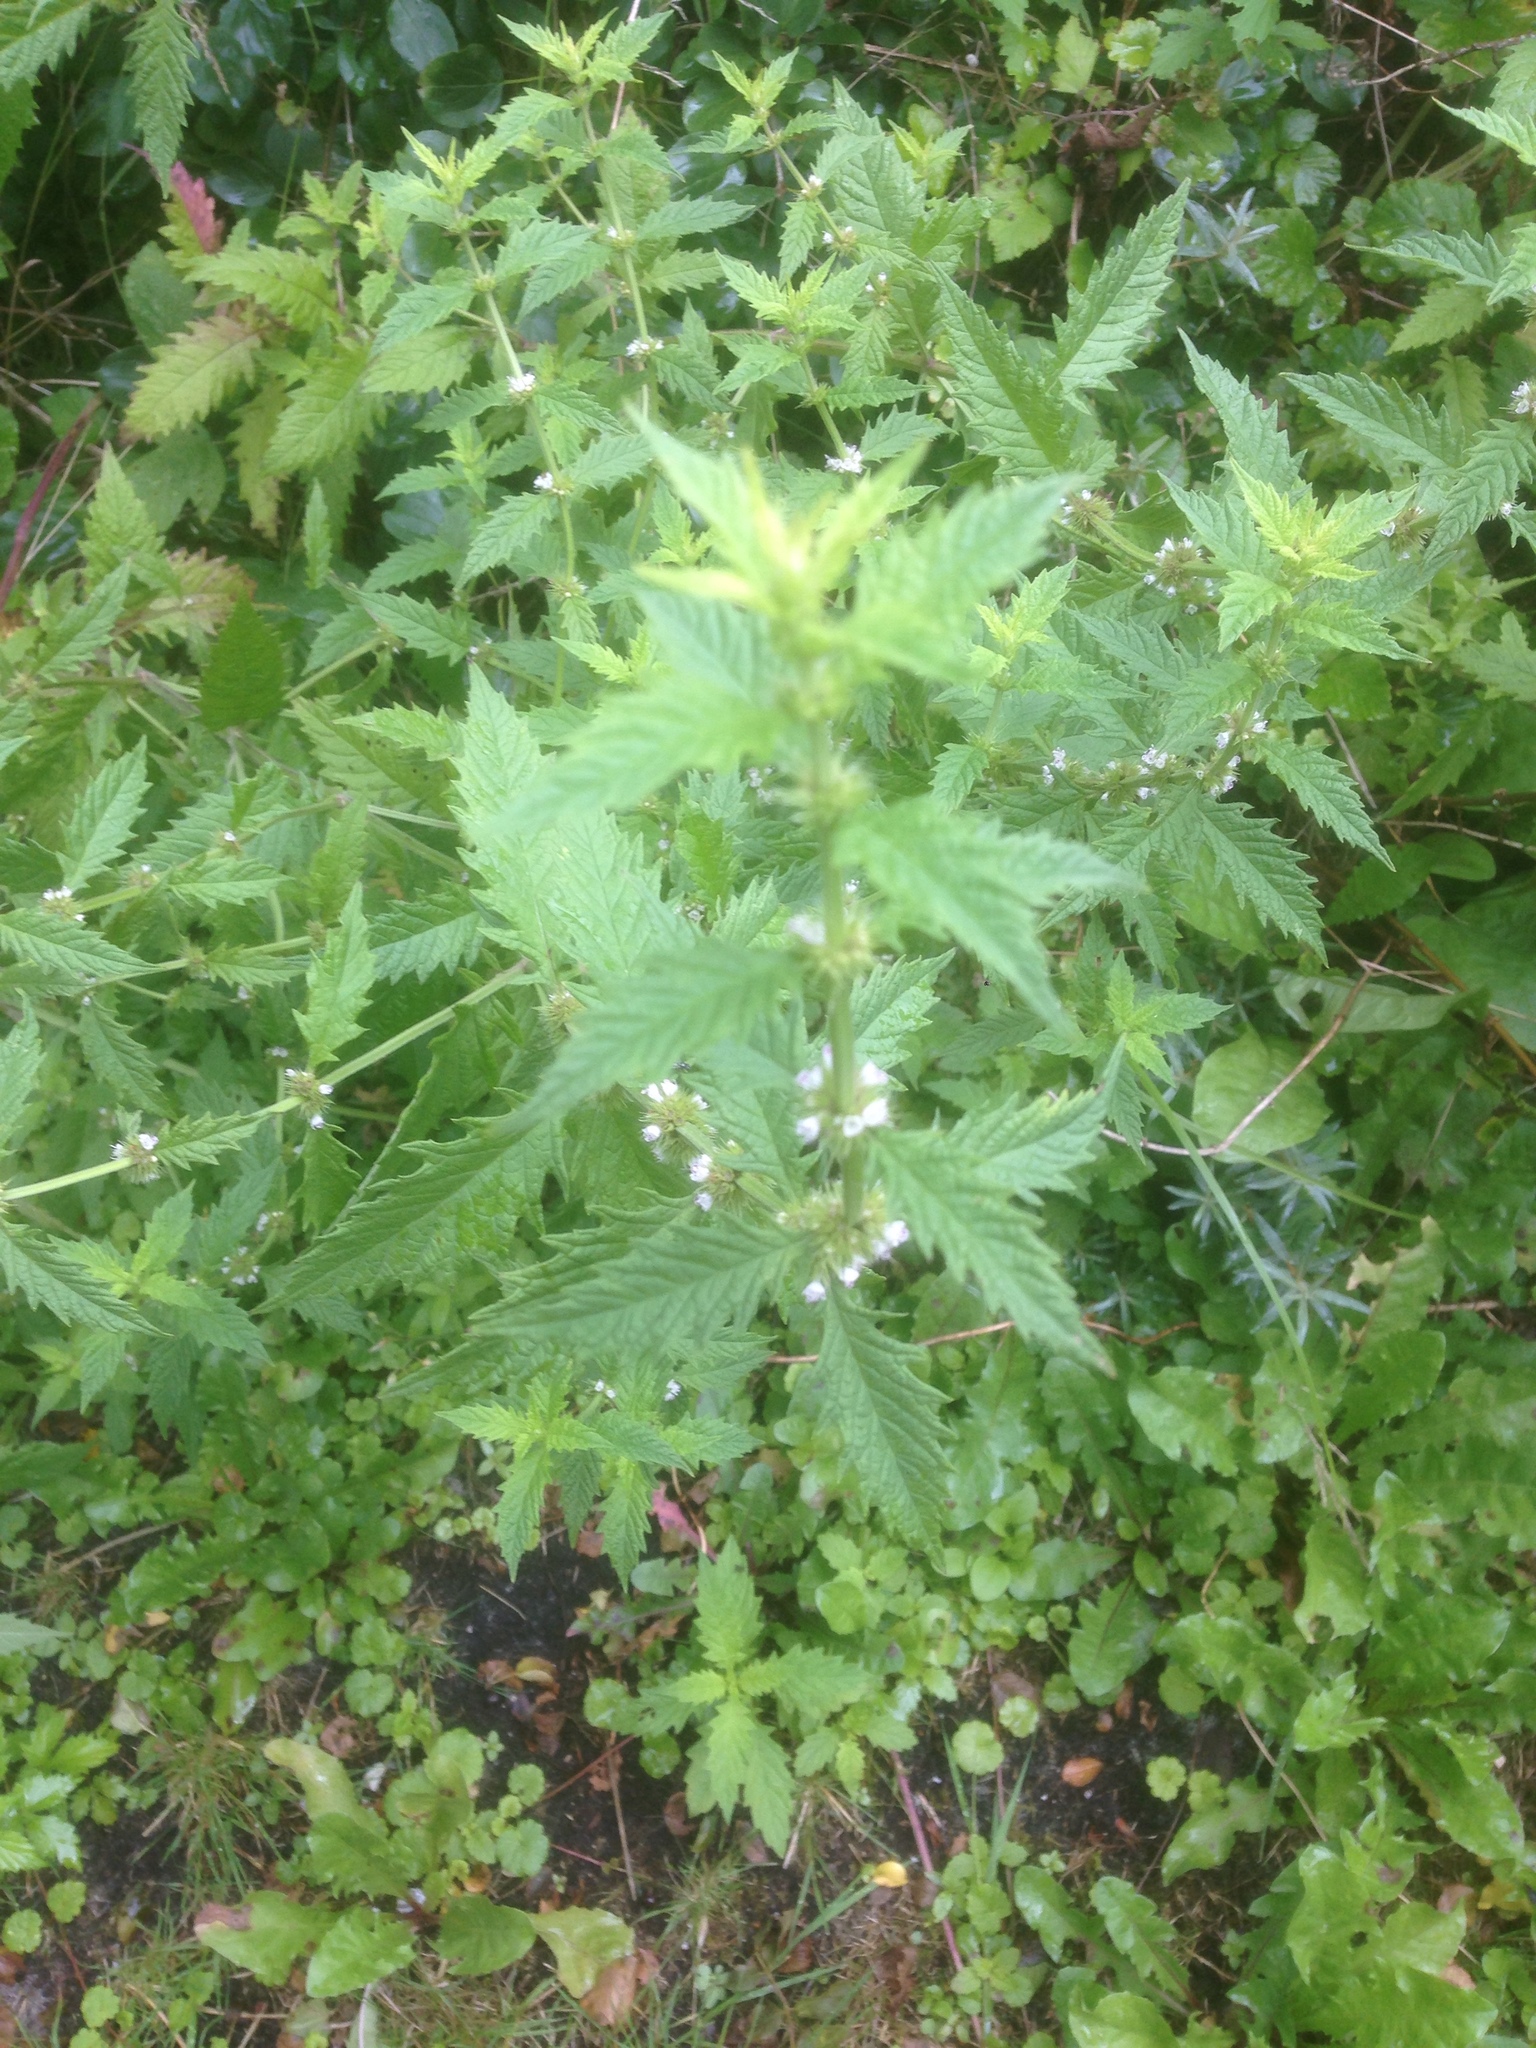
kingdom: Plantae
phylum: Tracheophyta
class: Magnoliopsida
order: Lamiales
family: Lamiaceae
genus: Lycopus
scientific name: Lycopus europaeus
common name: European bugleweed
